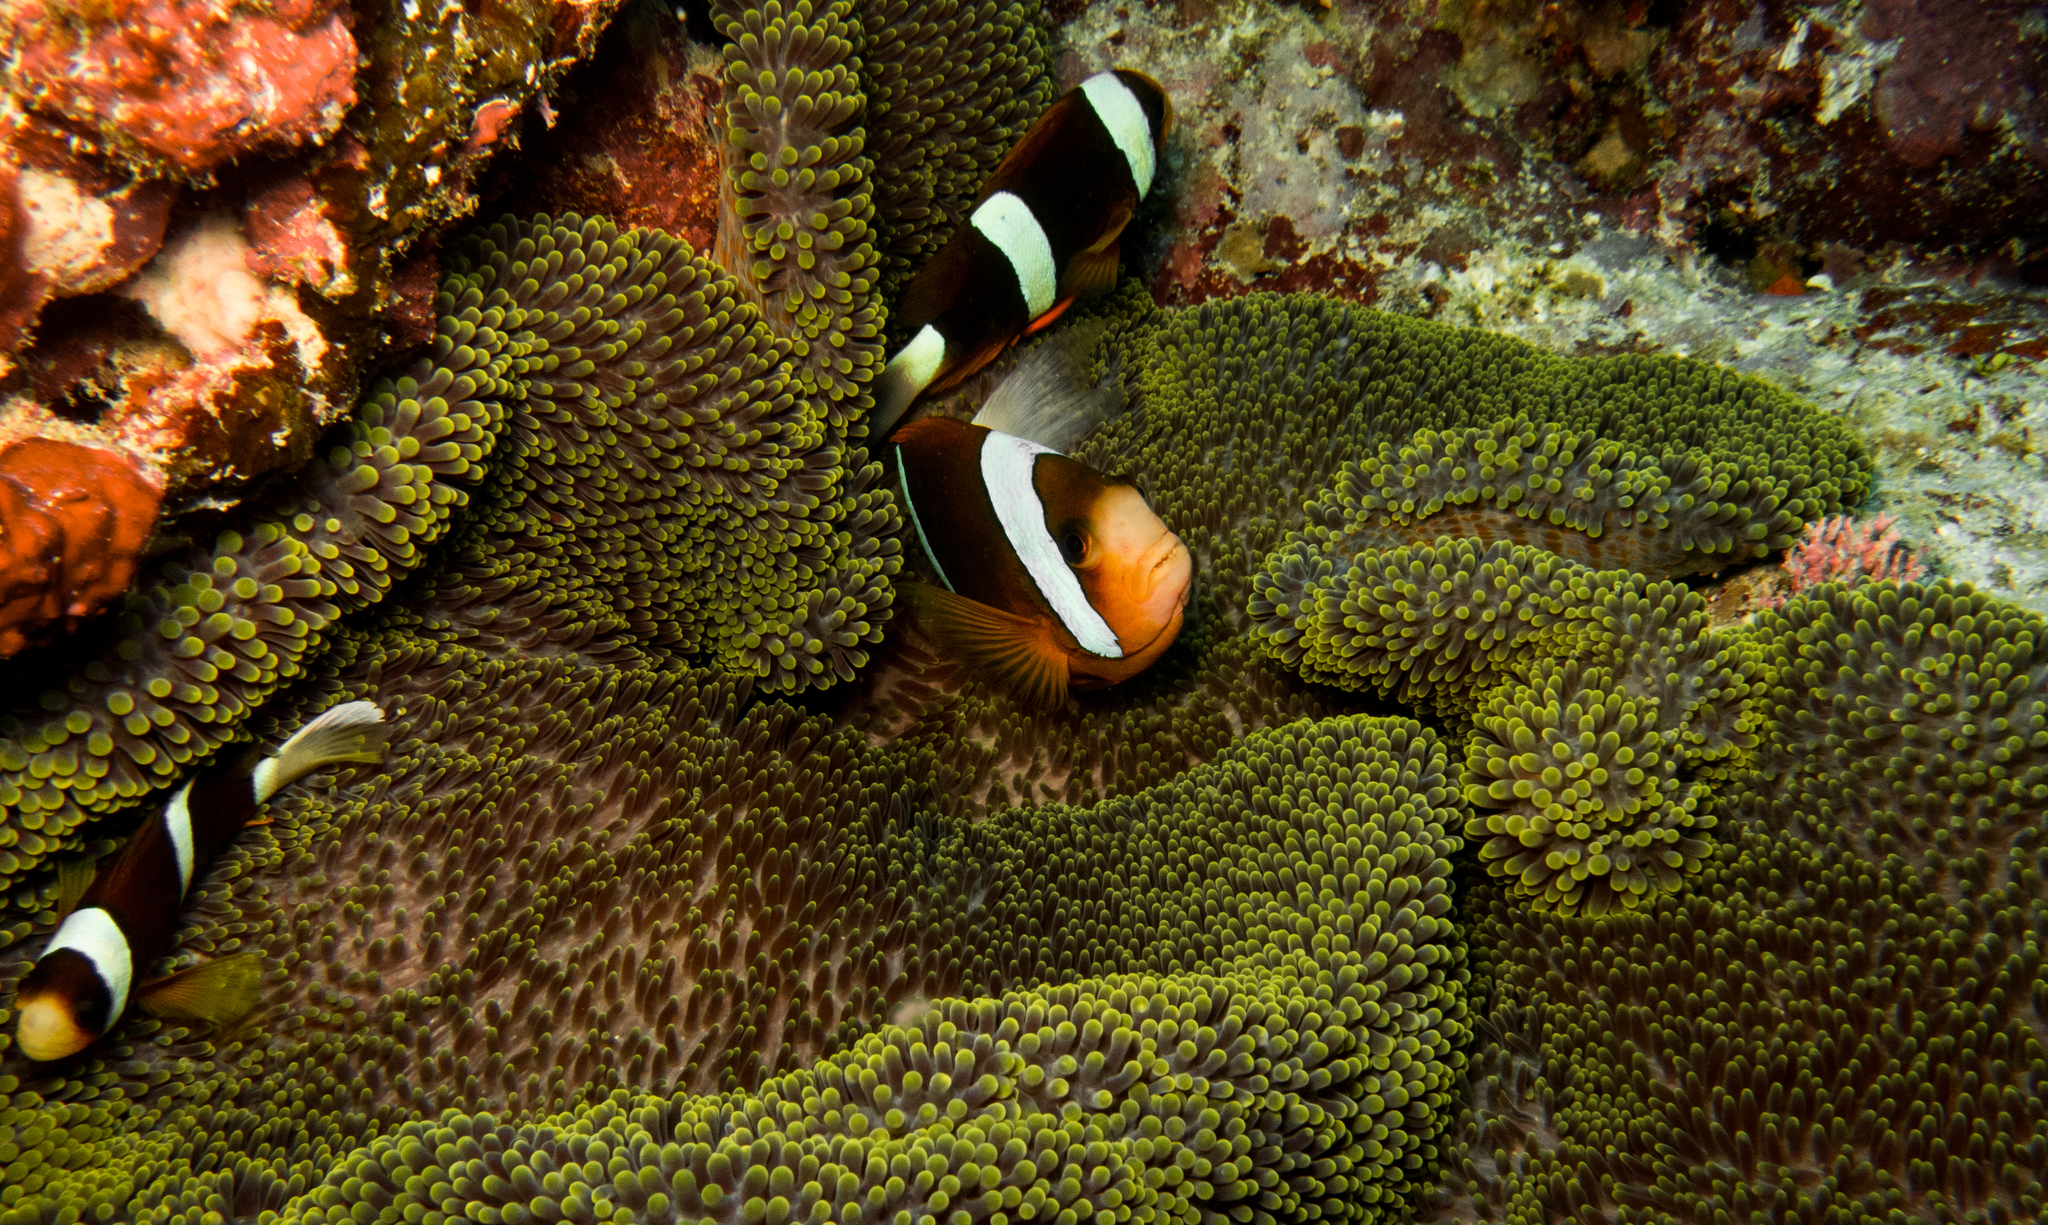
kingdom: Animalia
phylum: Chordata
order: Perciformes
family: Pomacentridae
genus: Amphiprion
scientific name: Amphiprion clarkii
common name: Clark's anemonefish
